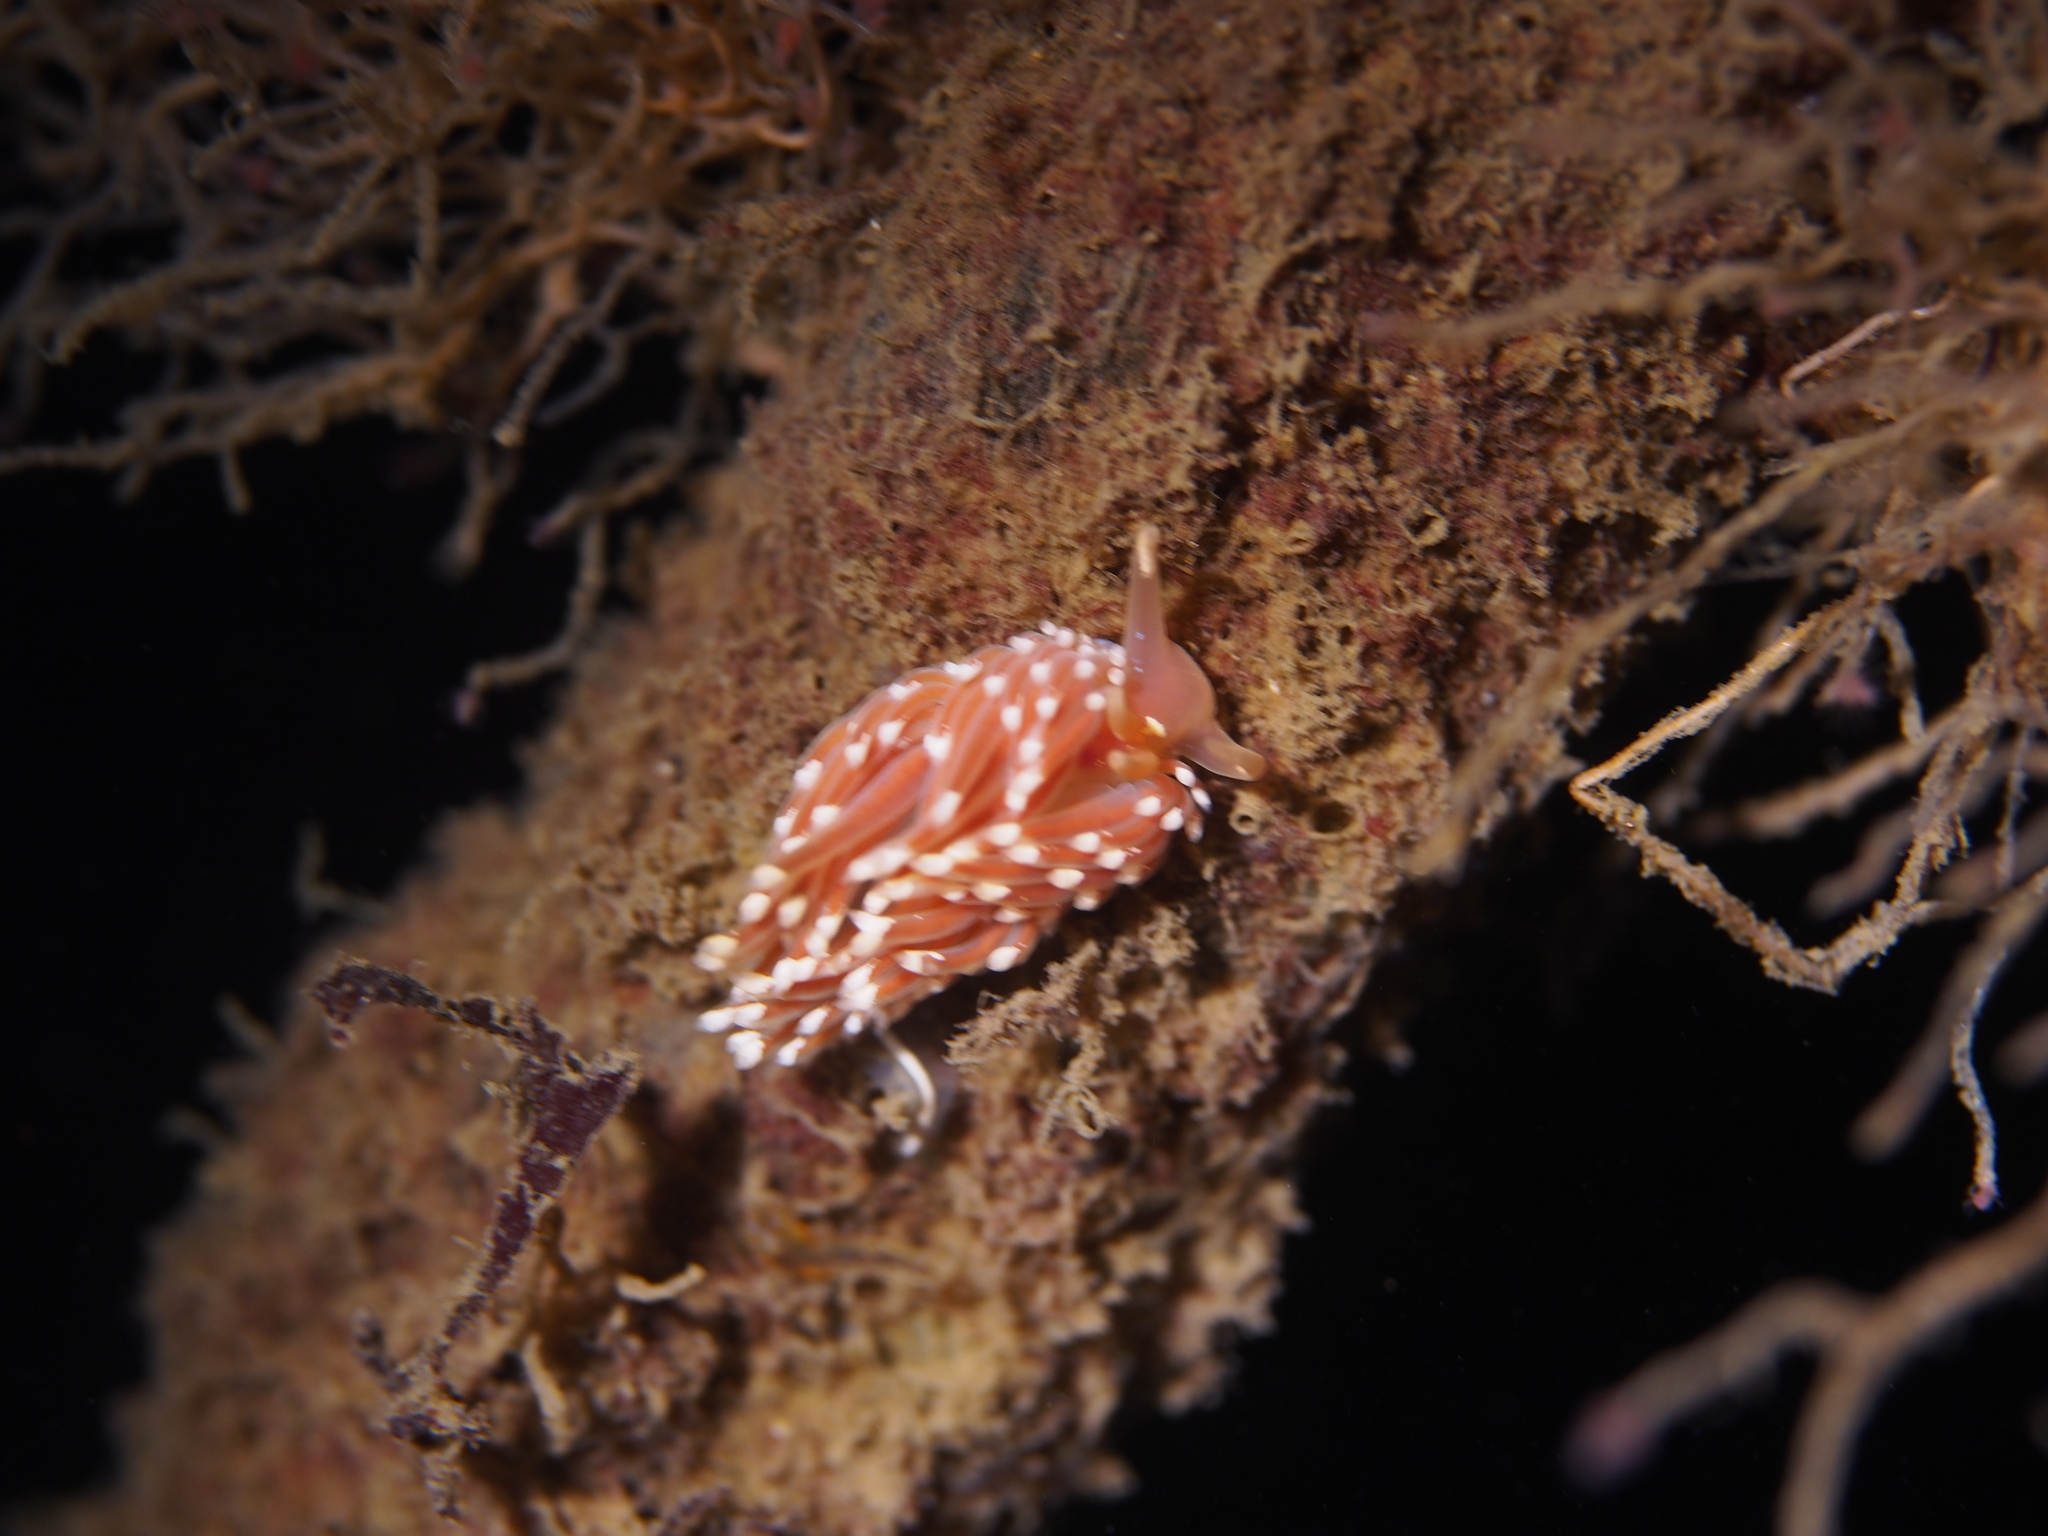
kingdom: Animalia
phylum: Mollusca
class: Gastropoda
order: Nudibranchia
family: Facelinidae
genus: Facelina
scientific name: Facelina bostoniensis
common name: Boston facelina
